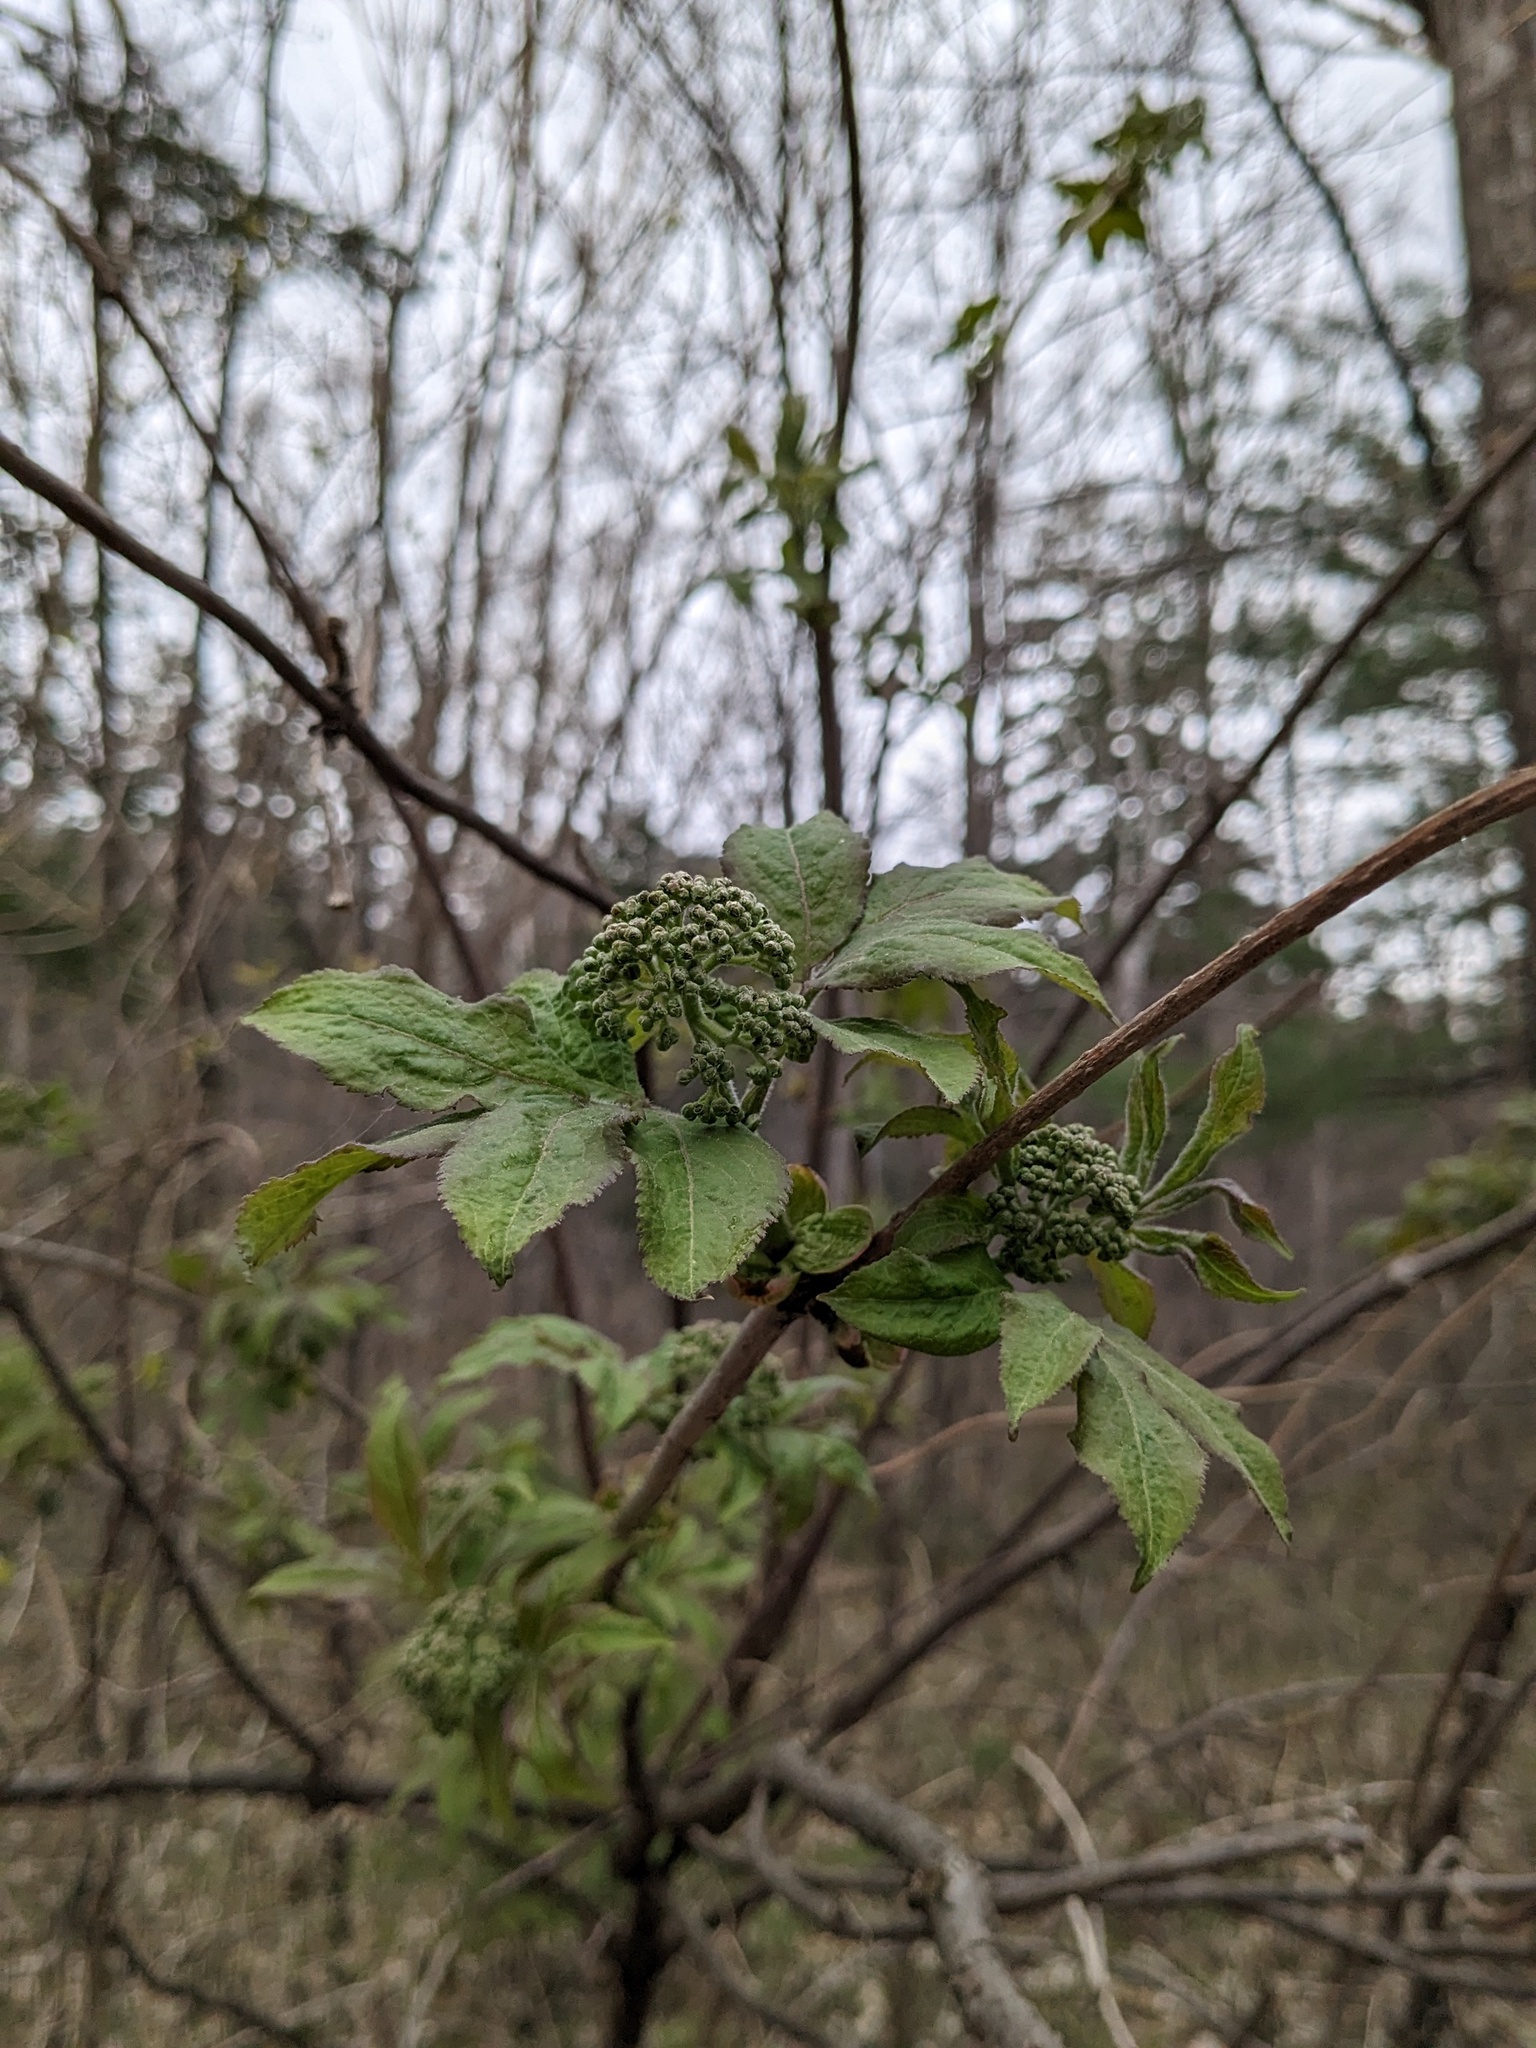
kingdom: Plantae
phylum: Tracheophyta
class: Magnoliopsida
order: Dipsacales
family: Viburnaceae
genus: Sambucus
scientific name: Sambucus sibirica
